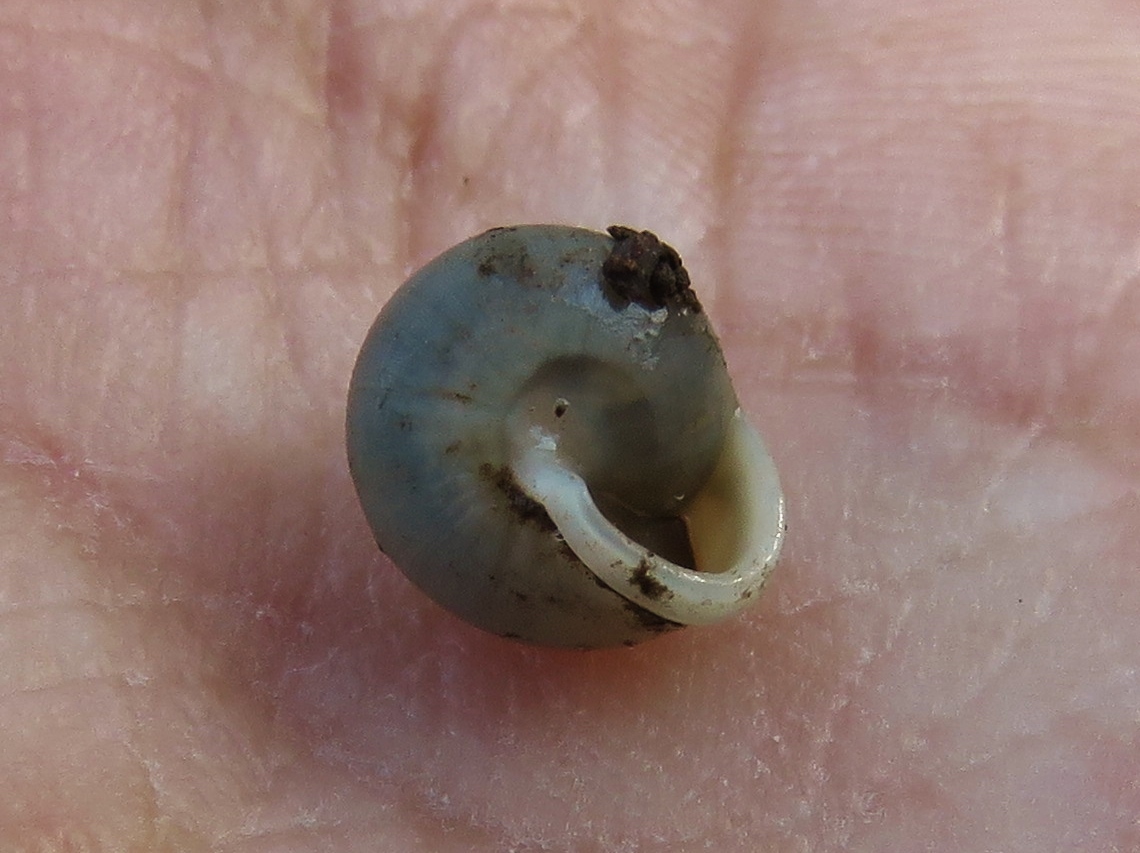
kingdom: Animalia
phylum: Mollusca
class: Gastropoda
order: Cycloneritida
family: Helicinidae
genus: Helicina
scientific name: Helicina orbiculata
